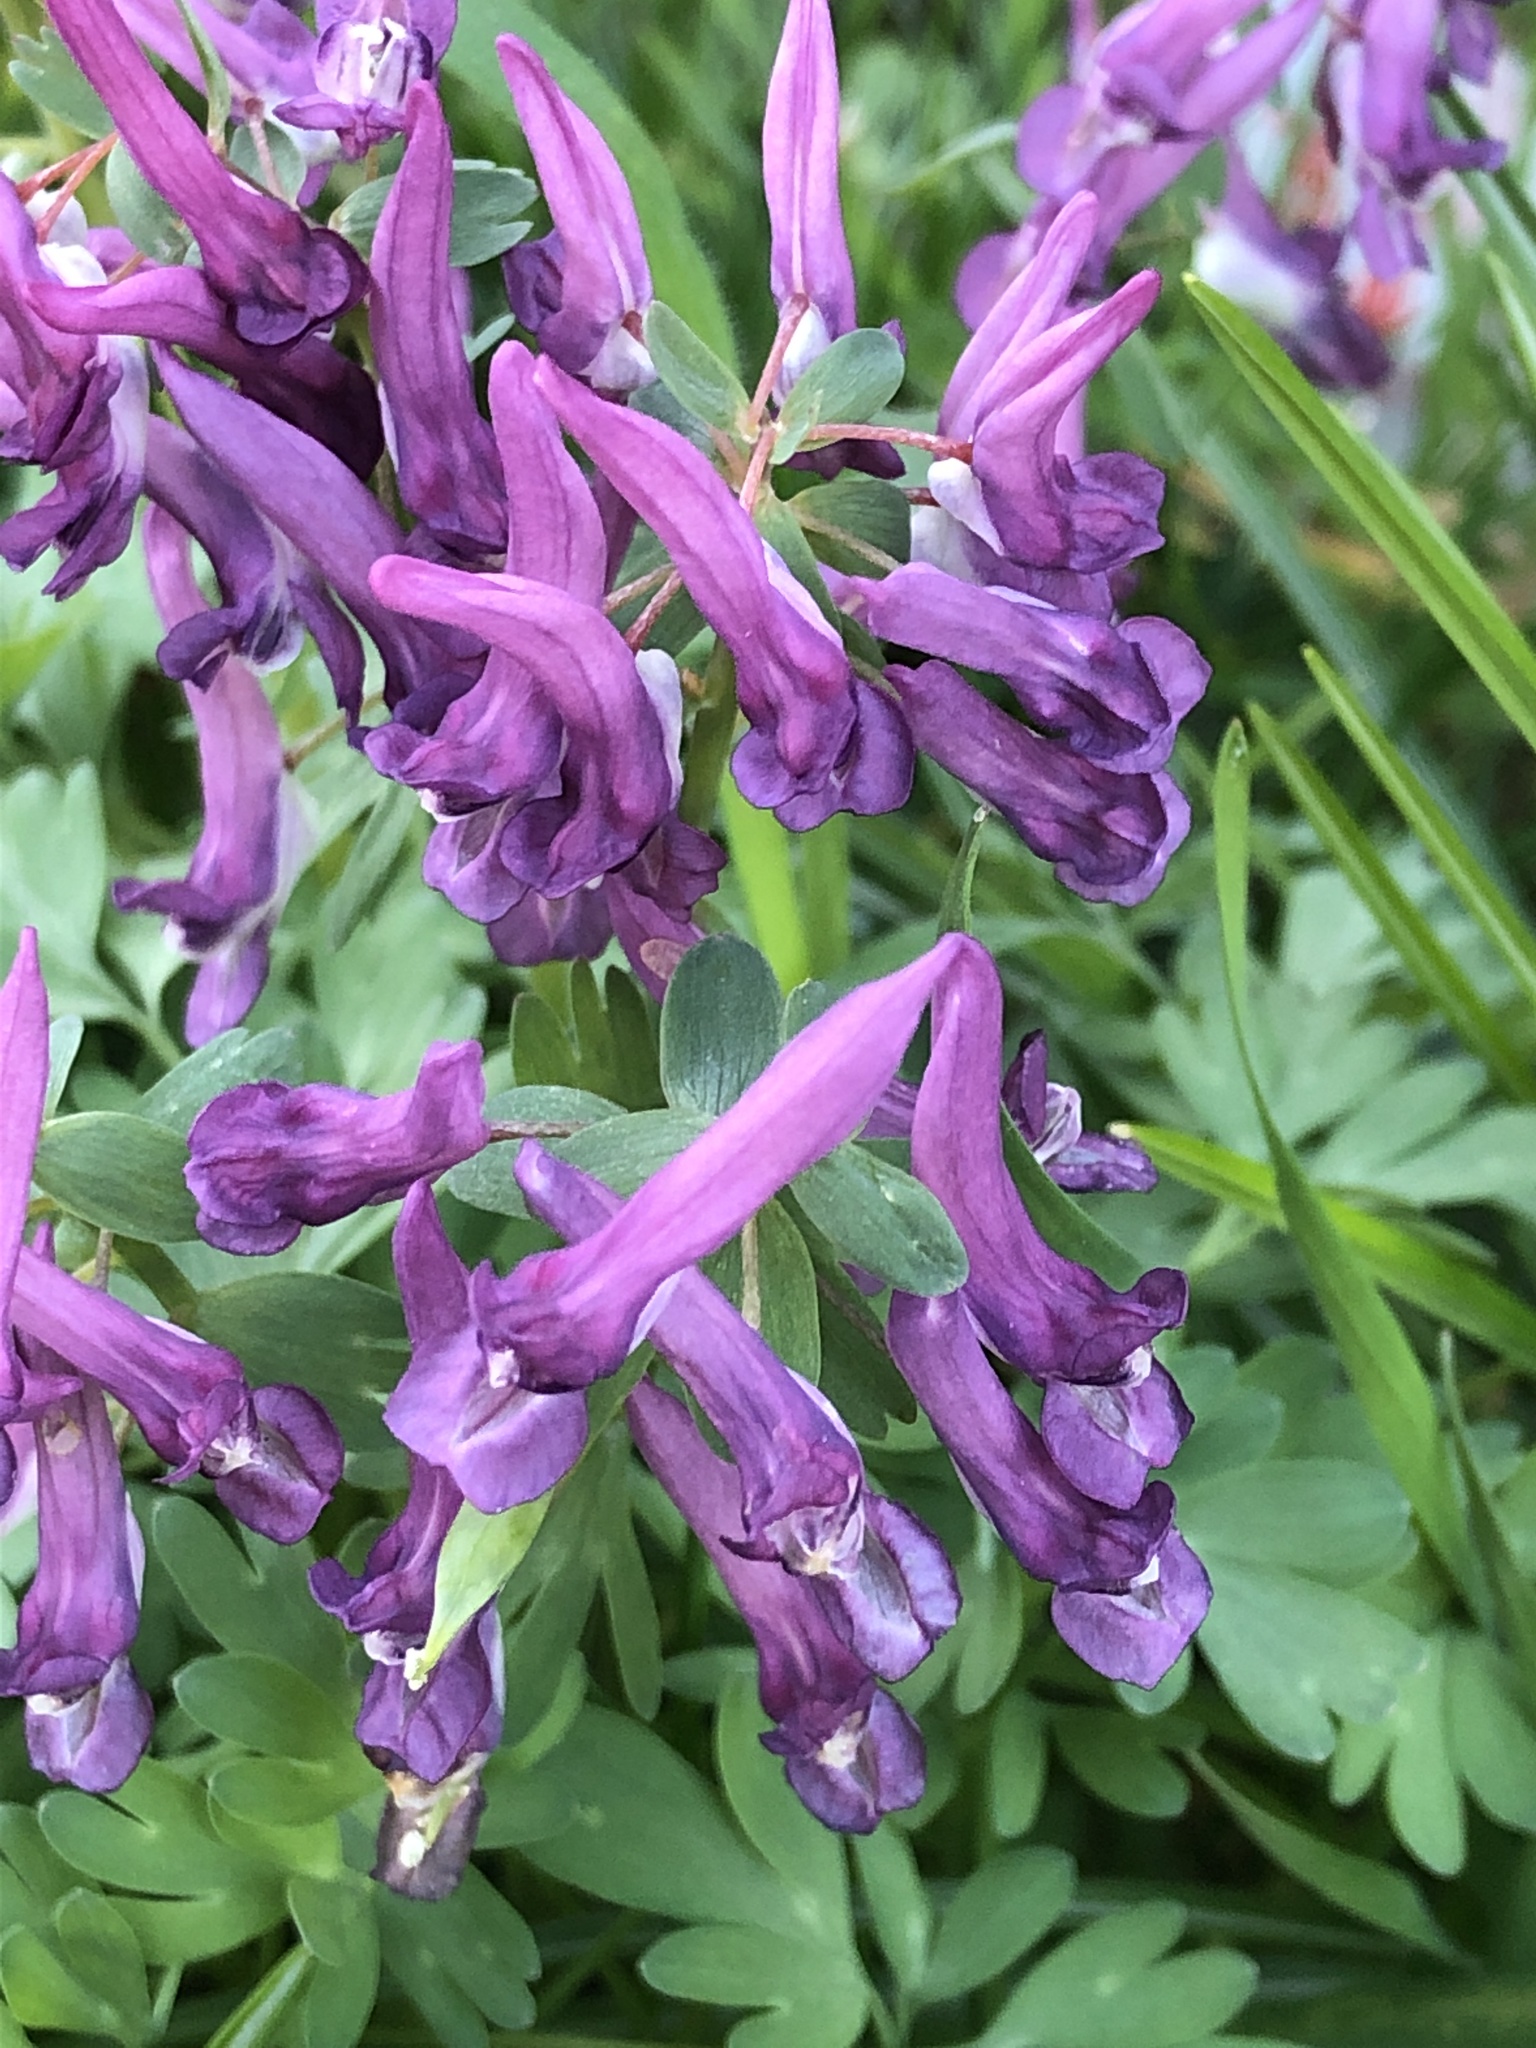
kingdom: Plantae
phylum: Tracheophyta
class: Magnoliopsida
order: Ranunculales
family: Papaveraceae
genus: Corydalis
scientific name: Corydalis cava
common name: Hollowroot
